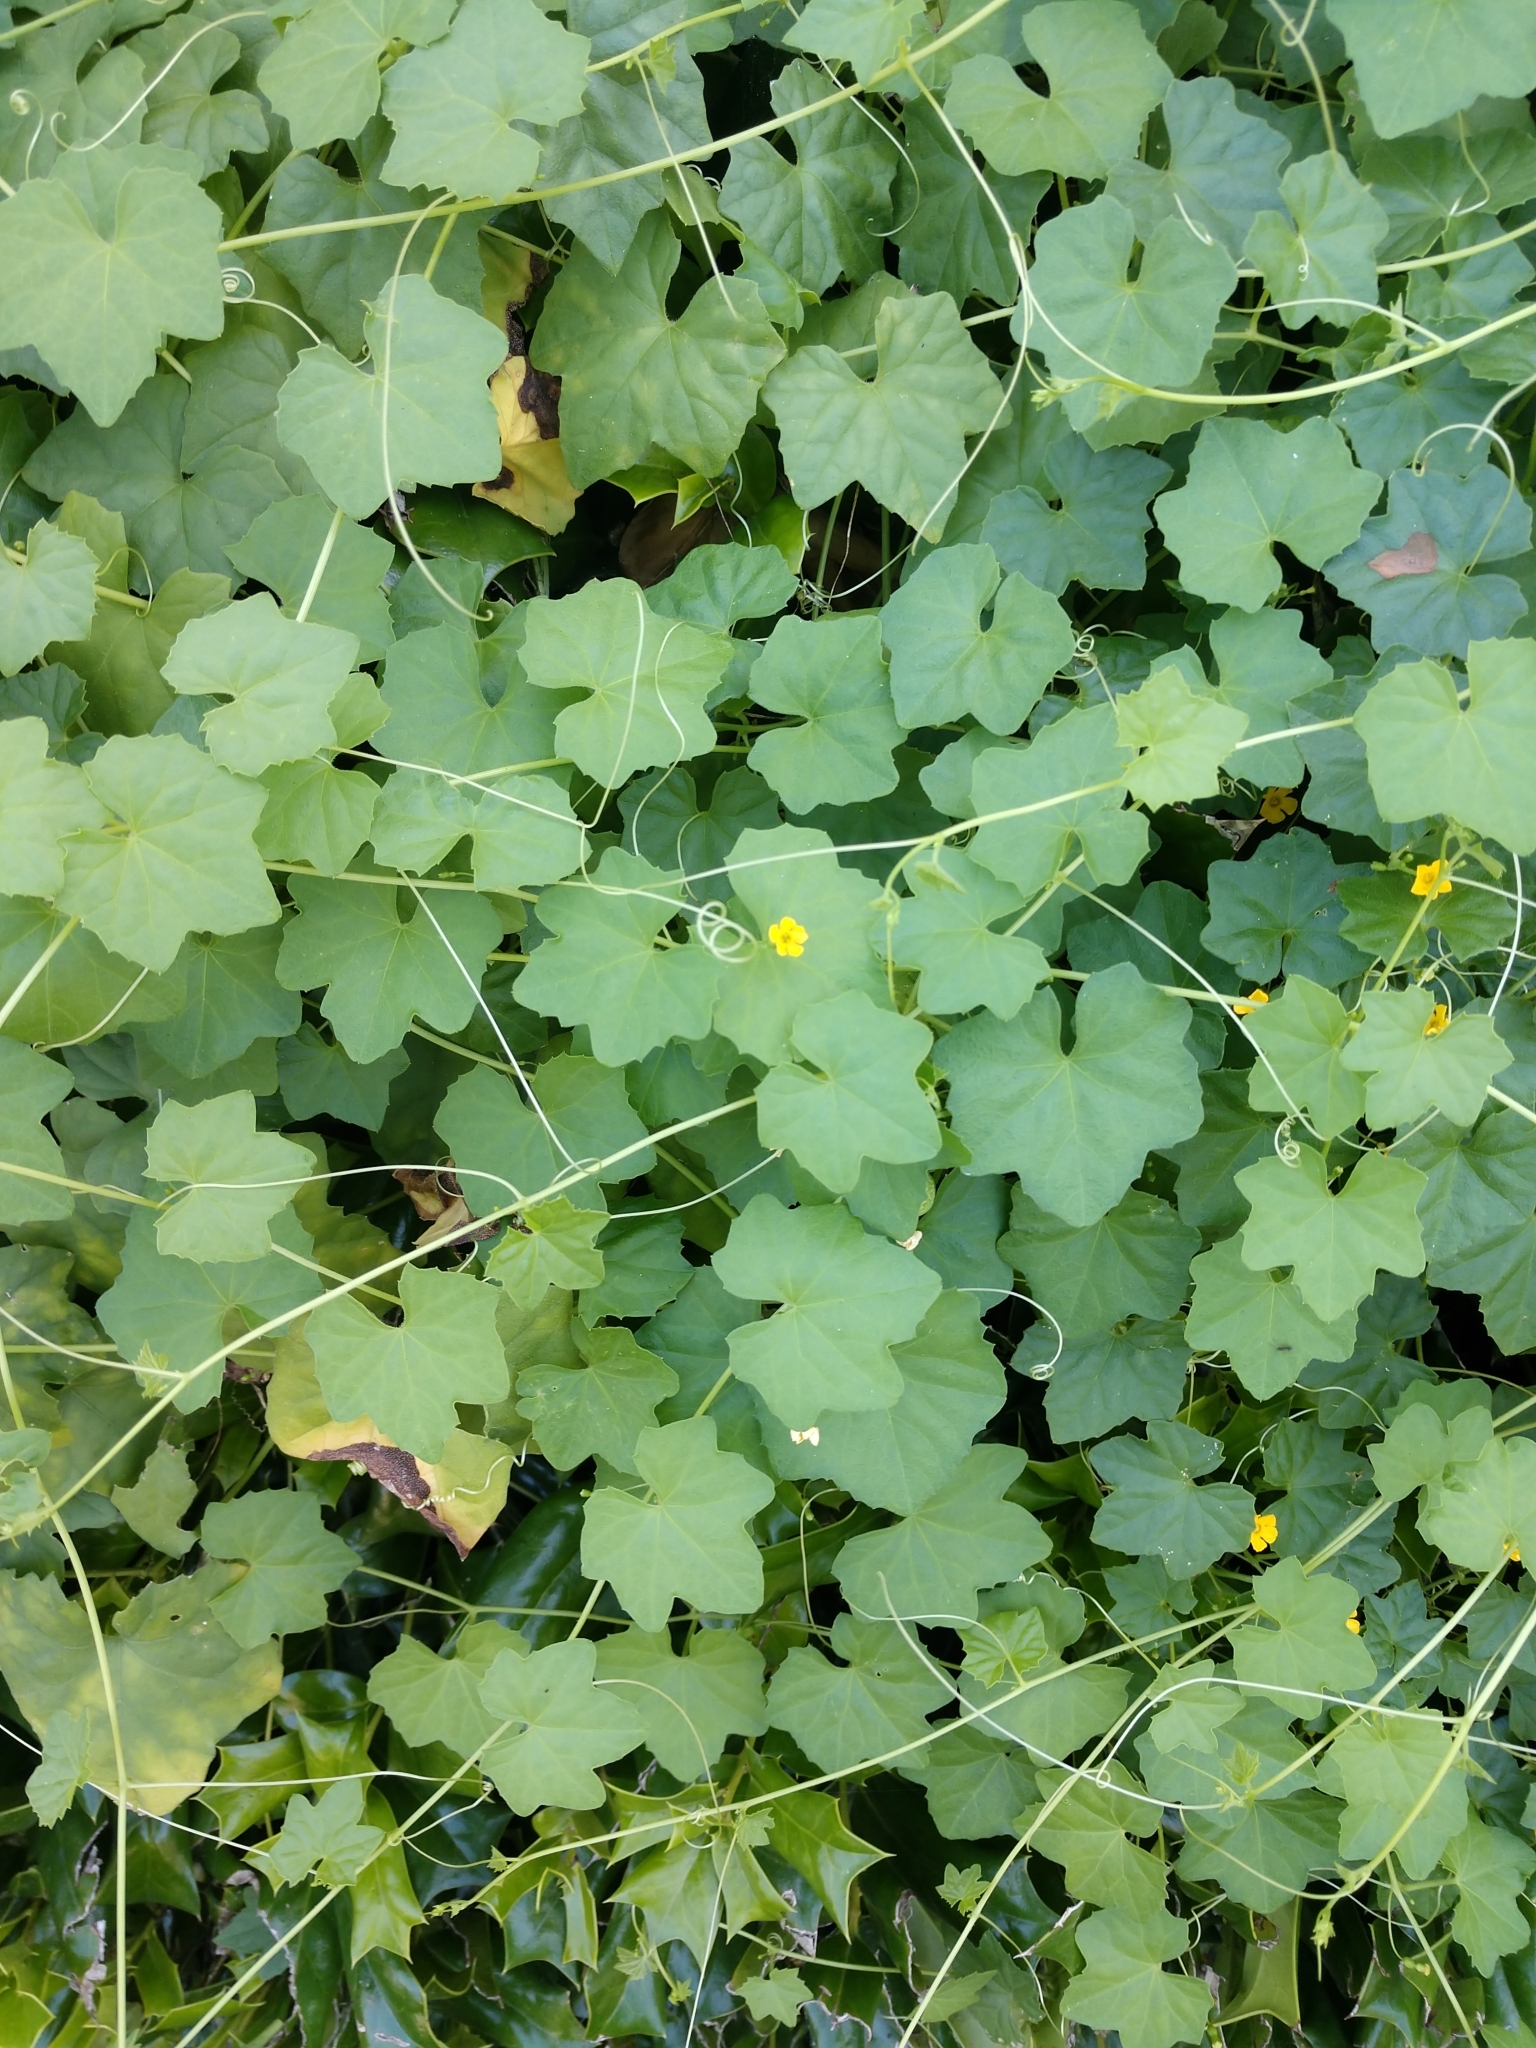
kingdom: Plantae
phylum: Tracheophyta
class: Magnoliopsida
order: Cucurbitales
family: Cucurbitaceae
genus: Melothria
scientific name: Melothria pendula
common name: Creeping-cucumber
